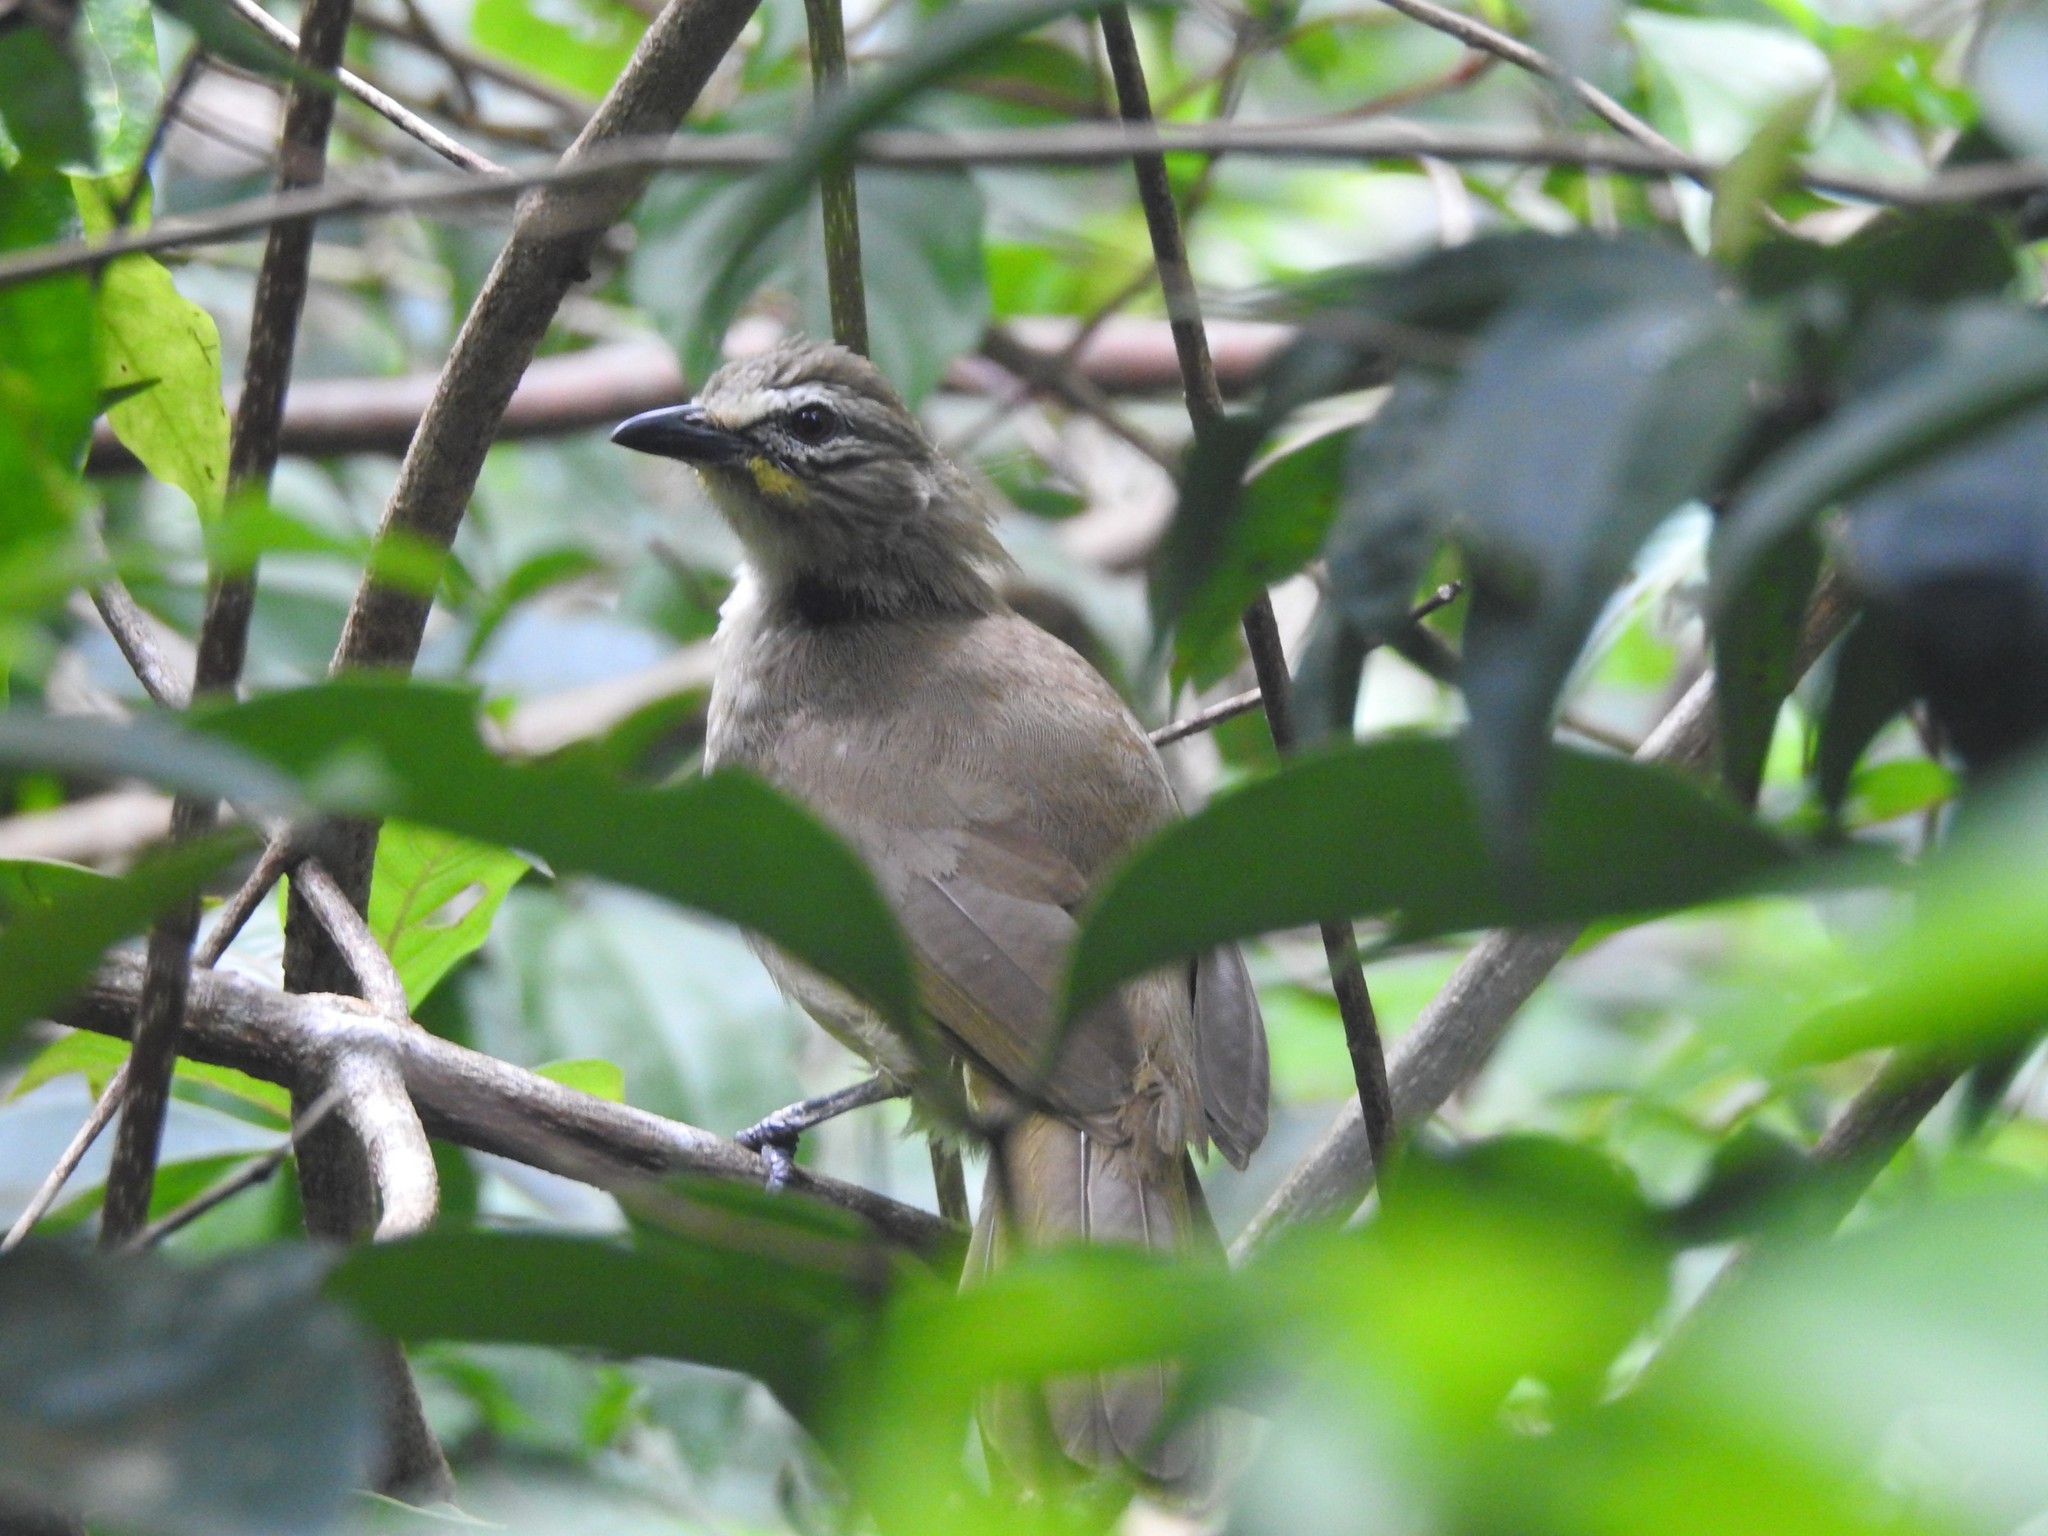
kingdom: Animalia
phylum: Chordata
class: Aves
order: Passeriformes
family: Pycnonotidae
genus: Pycnonotus
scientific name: Pycnonotus luteolus
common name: White-browed bulbul
